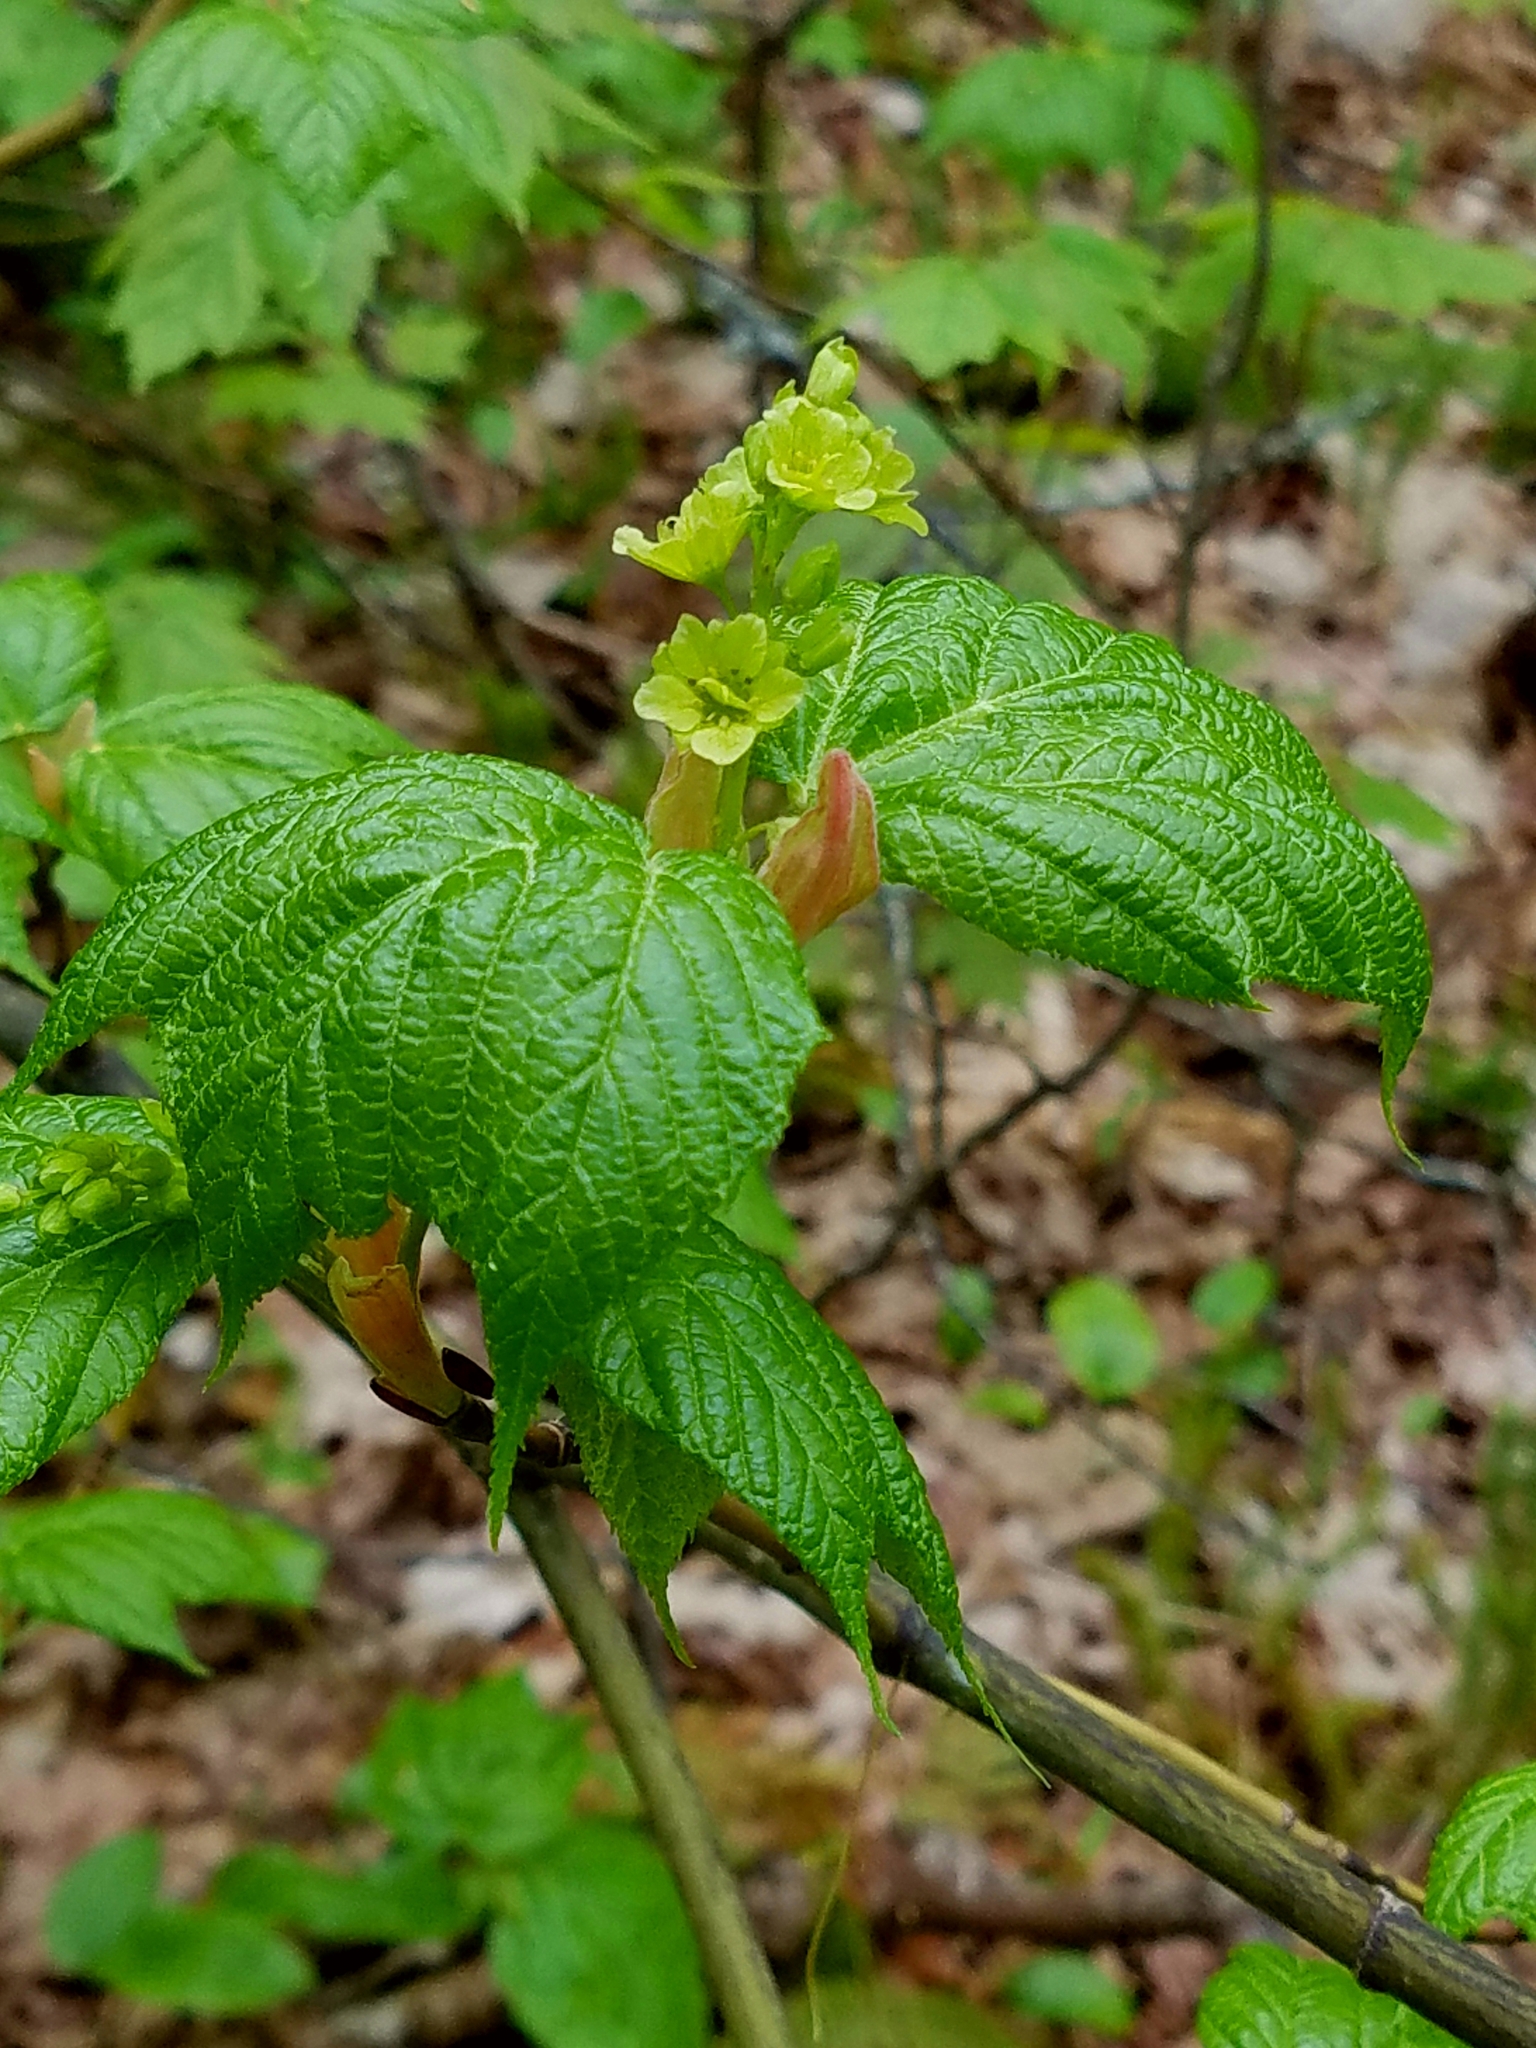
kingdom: Plantae
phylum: Tracheophyta
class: Magnoliopsida
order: Sapindales
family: Sapindaceae
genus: Acer
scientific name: Acer pensylvanicum
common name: Moosewood
